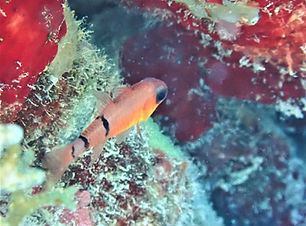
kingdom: Animalia
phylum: Chordata
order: Perciformes
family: Apogonidae
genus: Apogon
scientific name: Apogon townsendi
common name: Belted cardinalfish
